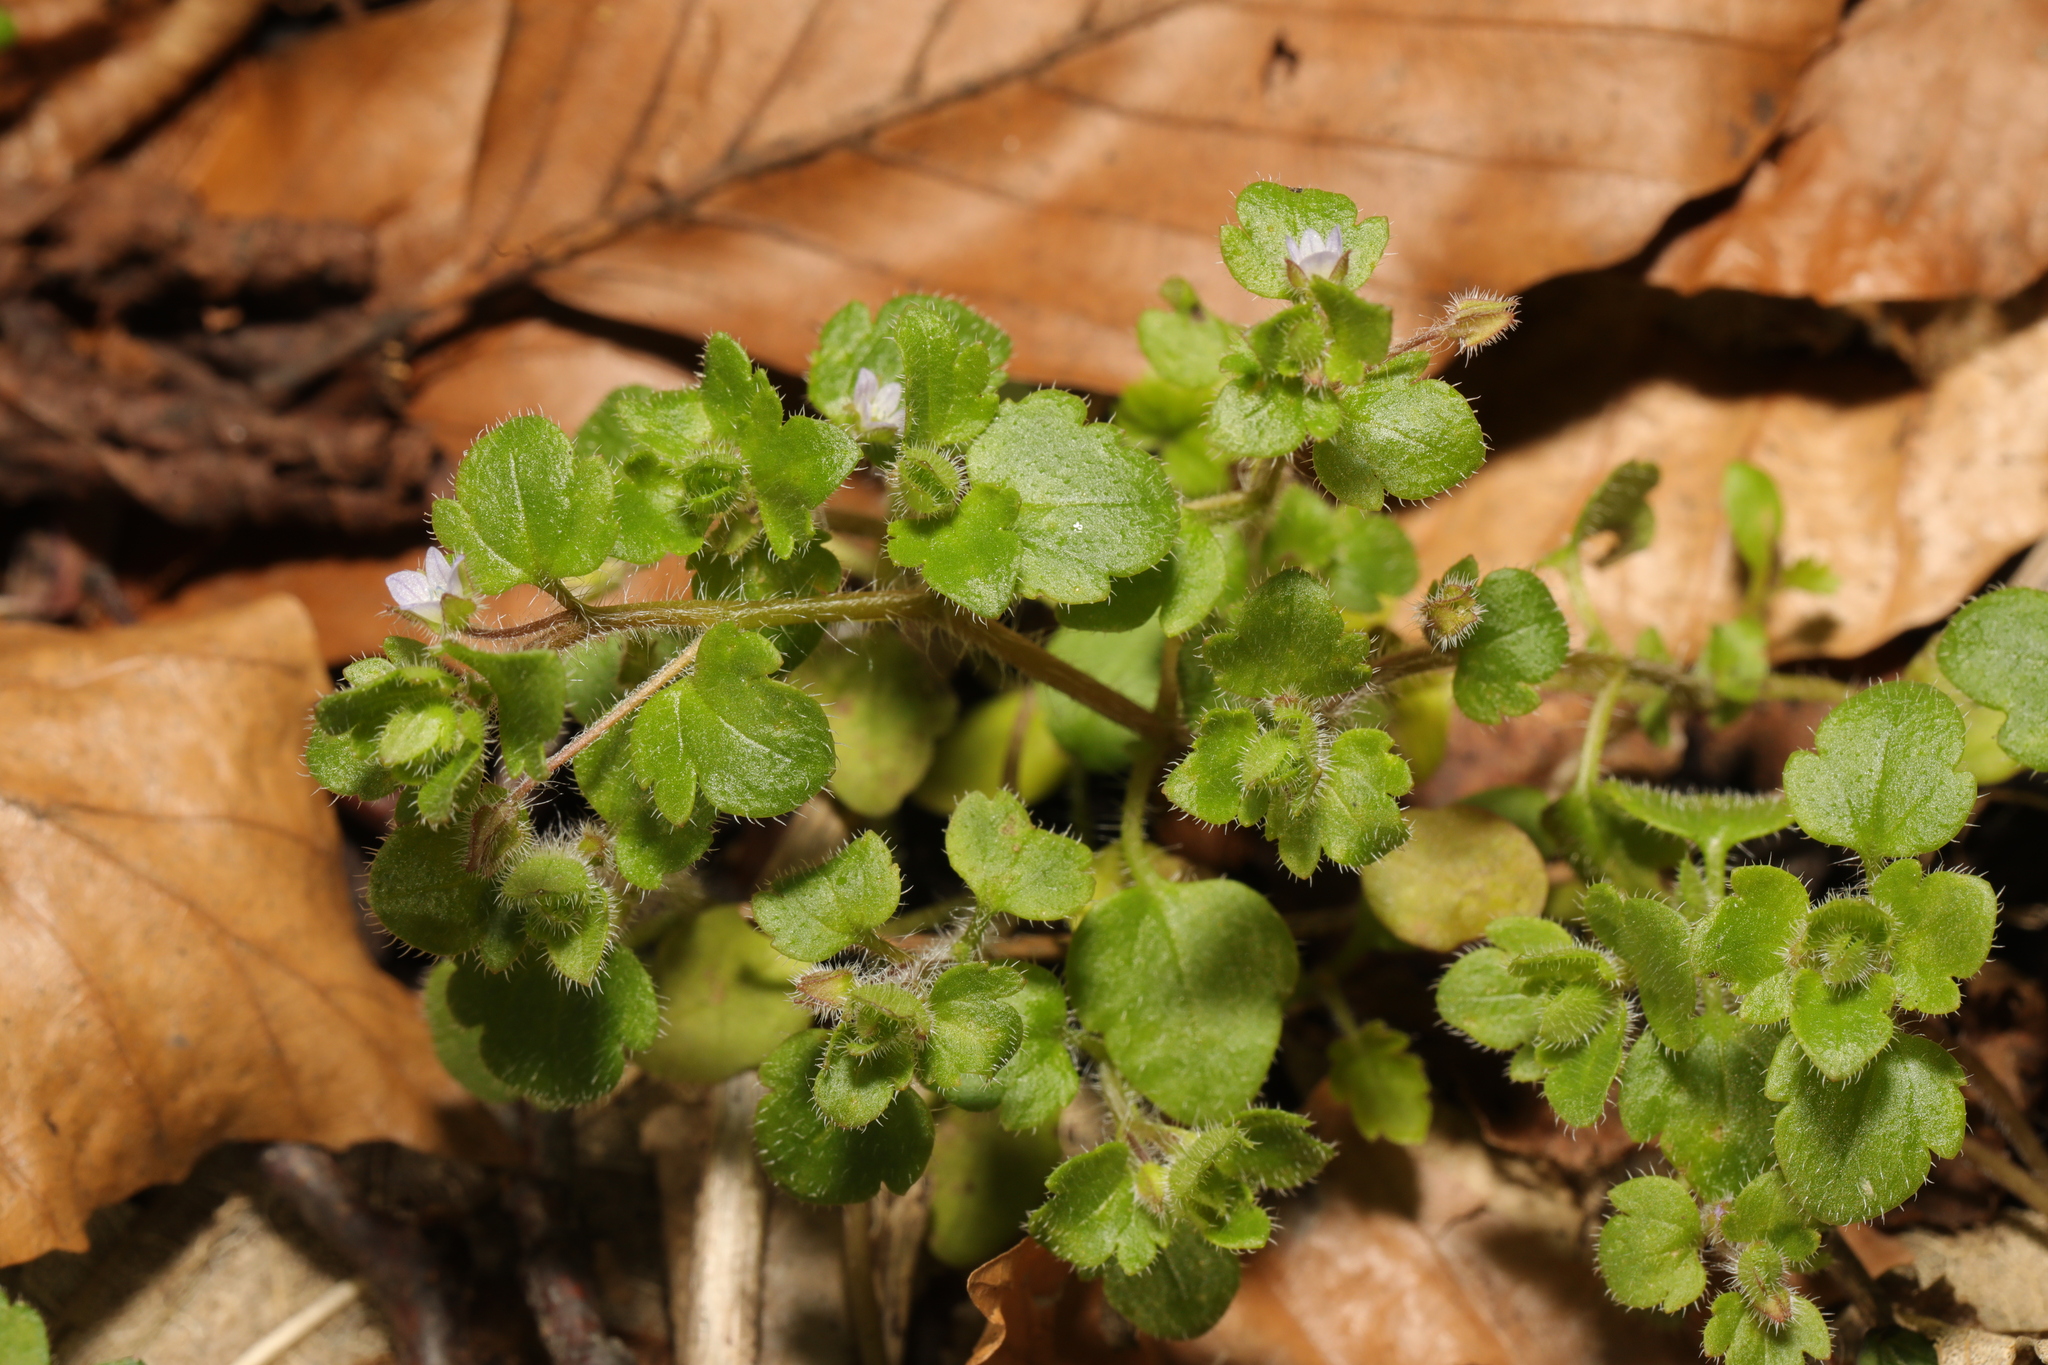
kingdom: Plantae
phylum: Tracheophyta
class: Magnoliopsida
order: Lamiales
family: Plantaginaceae
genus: Veronica
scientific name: Veronica sublobata
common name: False ivy-leaved speedwell
